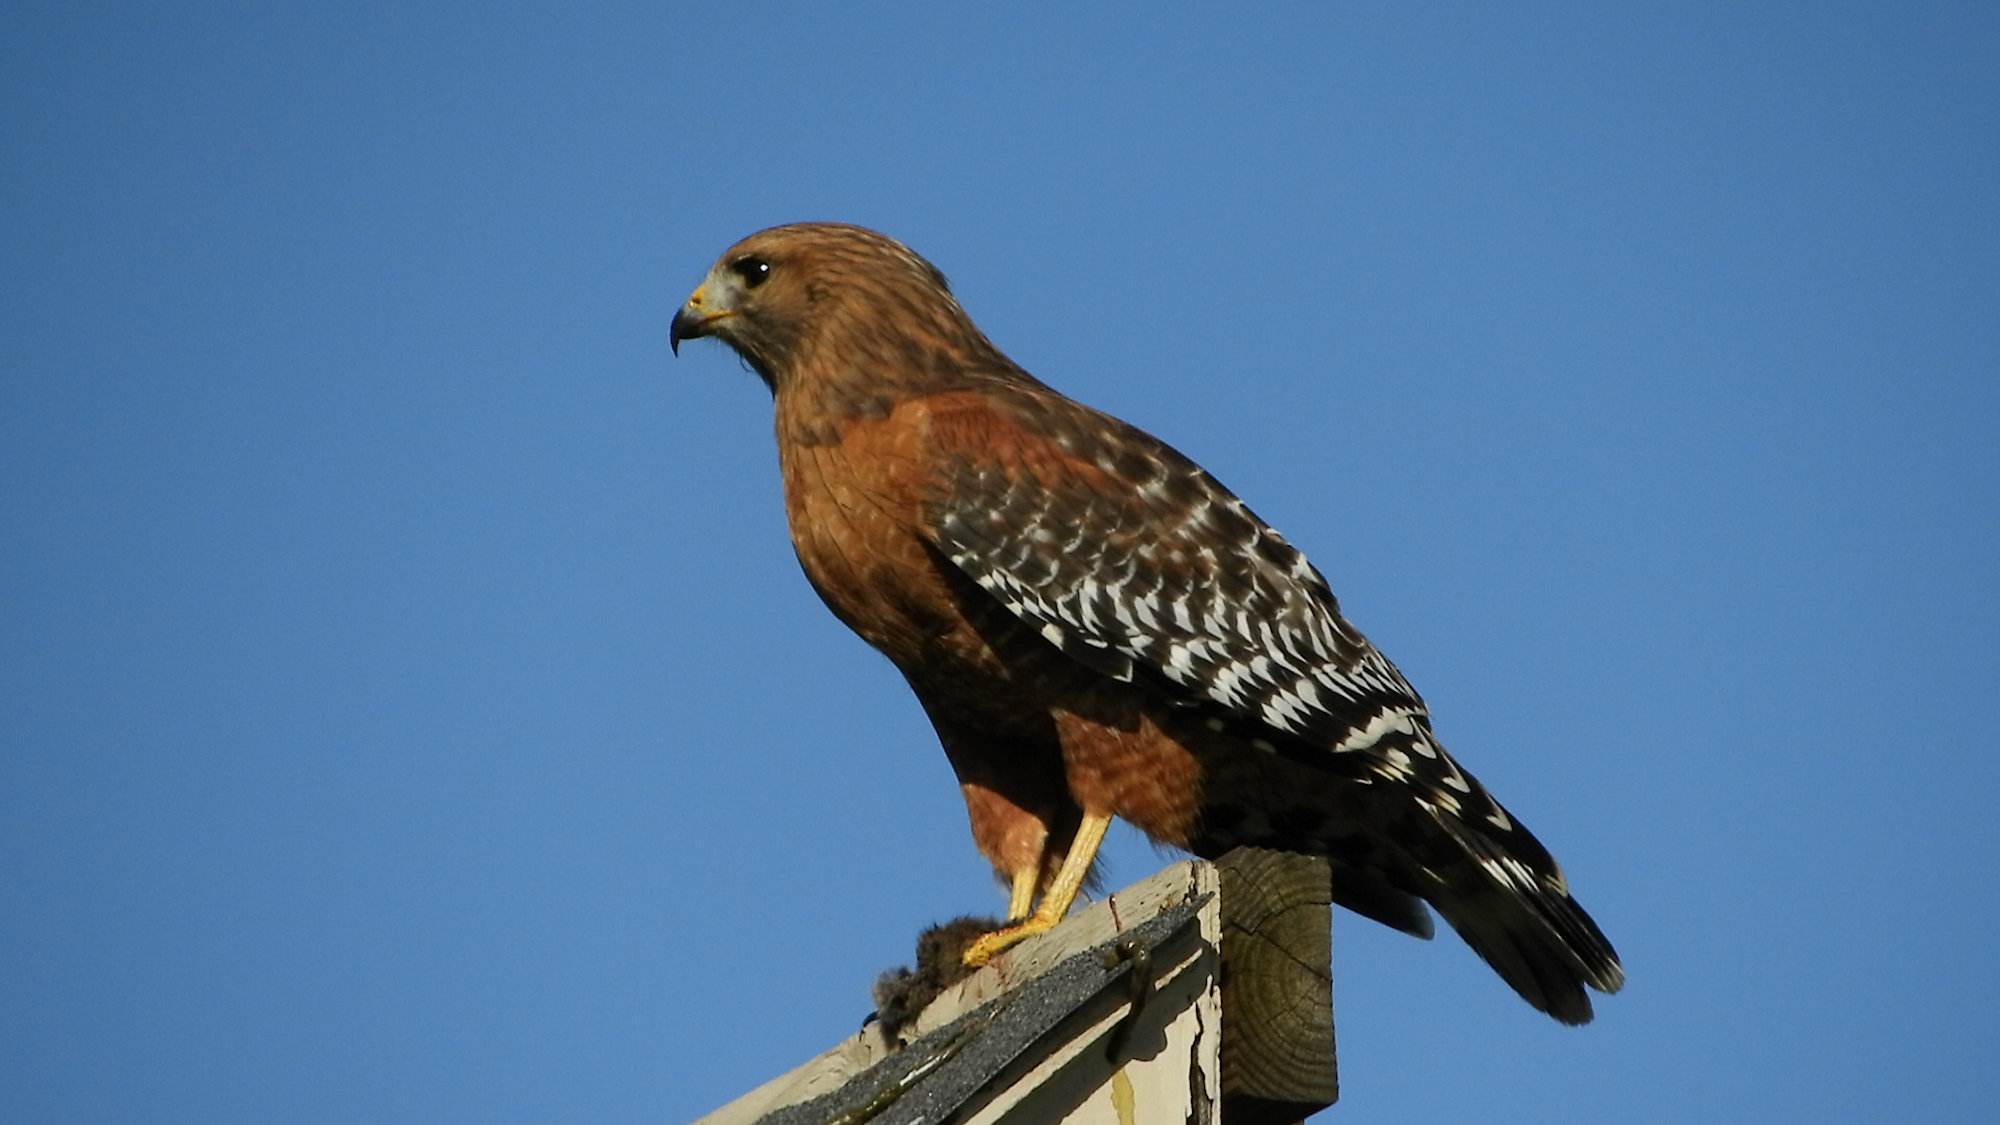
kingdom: Animalia
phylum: Chordata
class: Aves
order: Accipitriformes
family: Accipitridae
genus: Buteo
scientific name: Buteo lineatus
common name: Red-shouldered hawk
